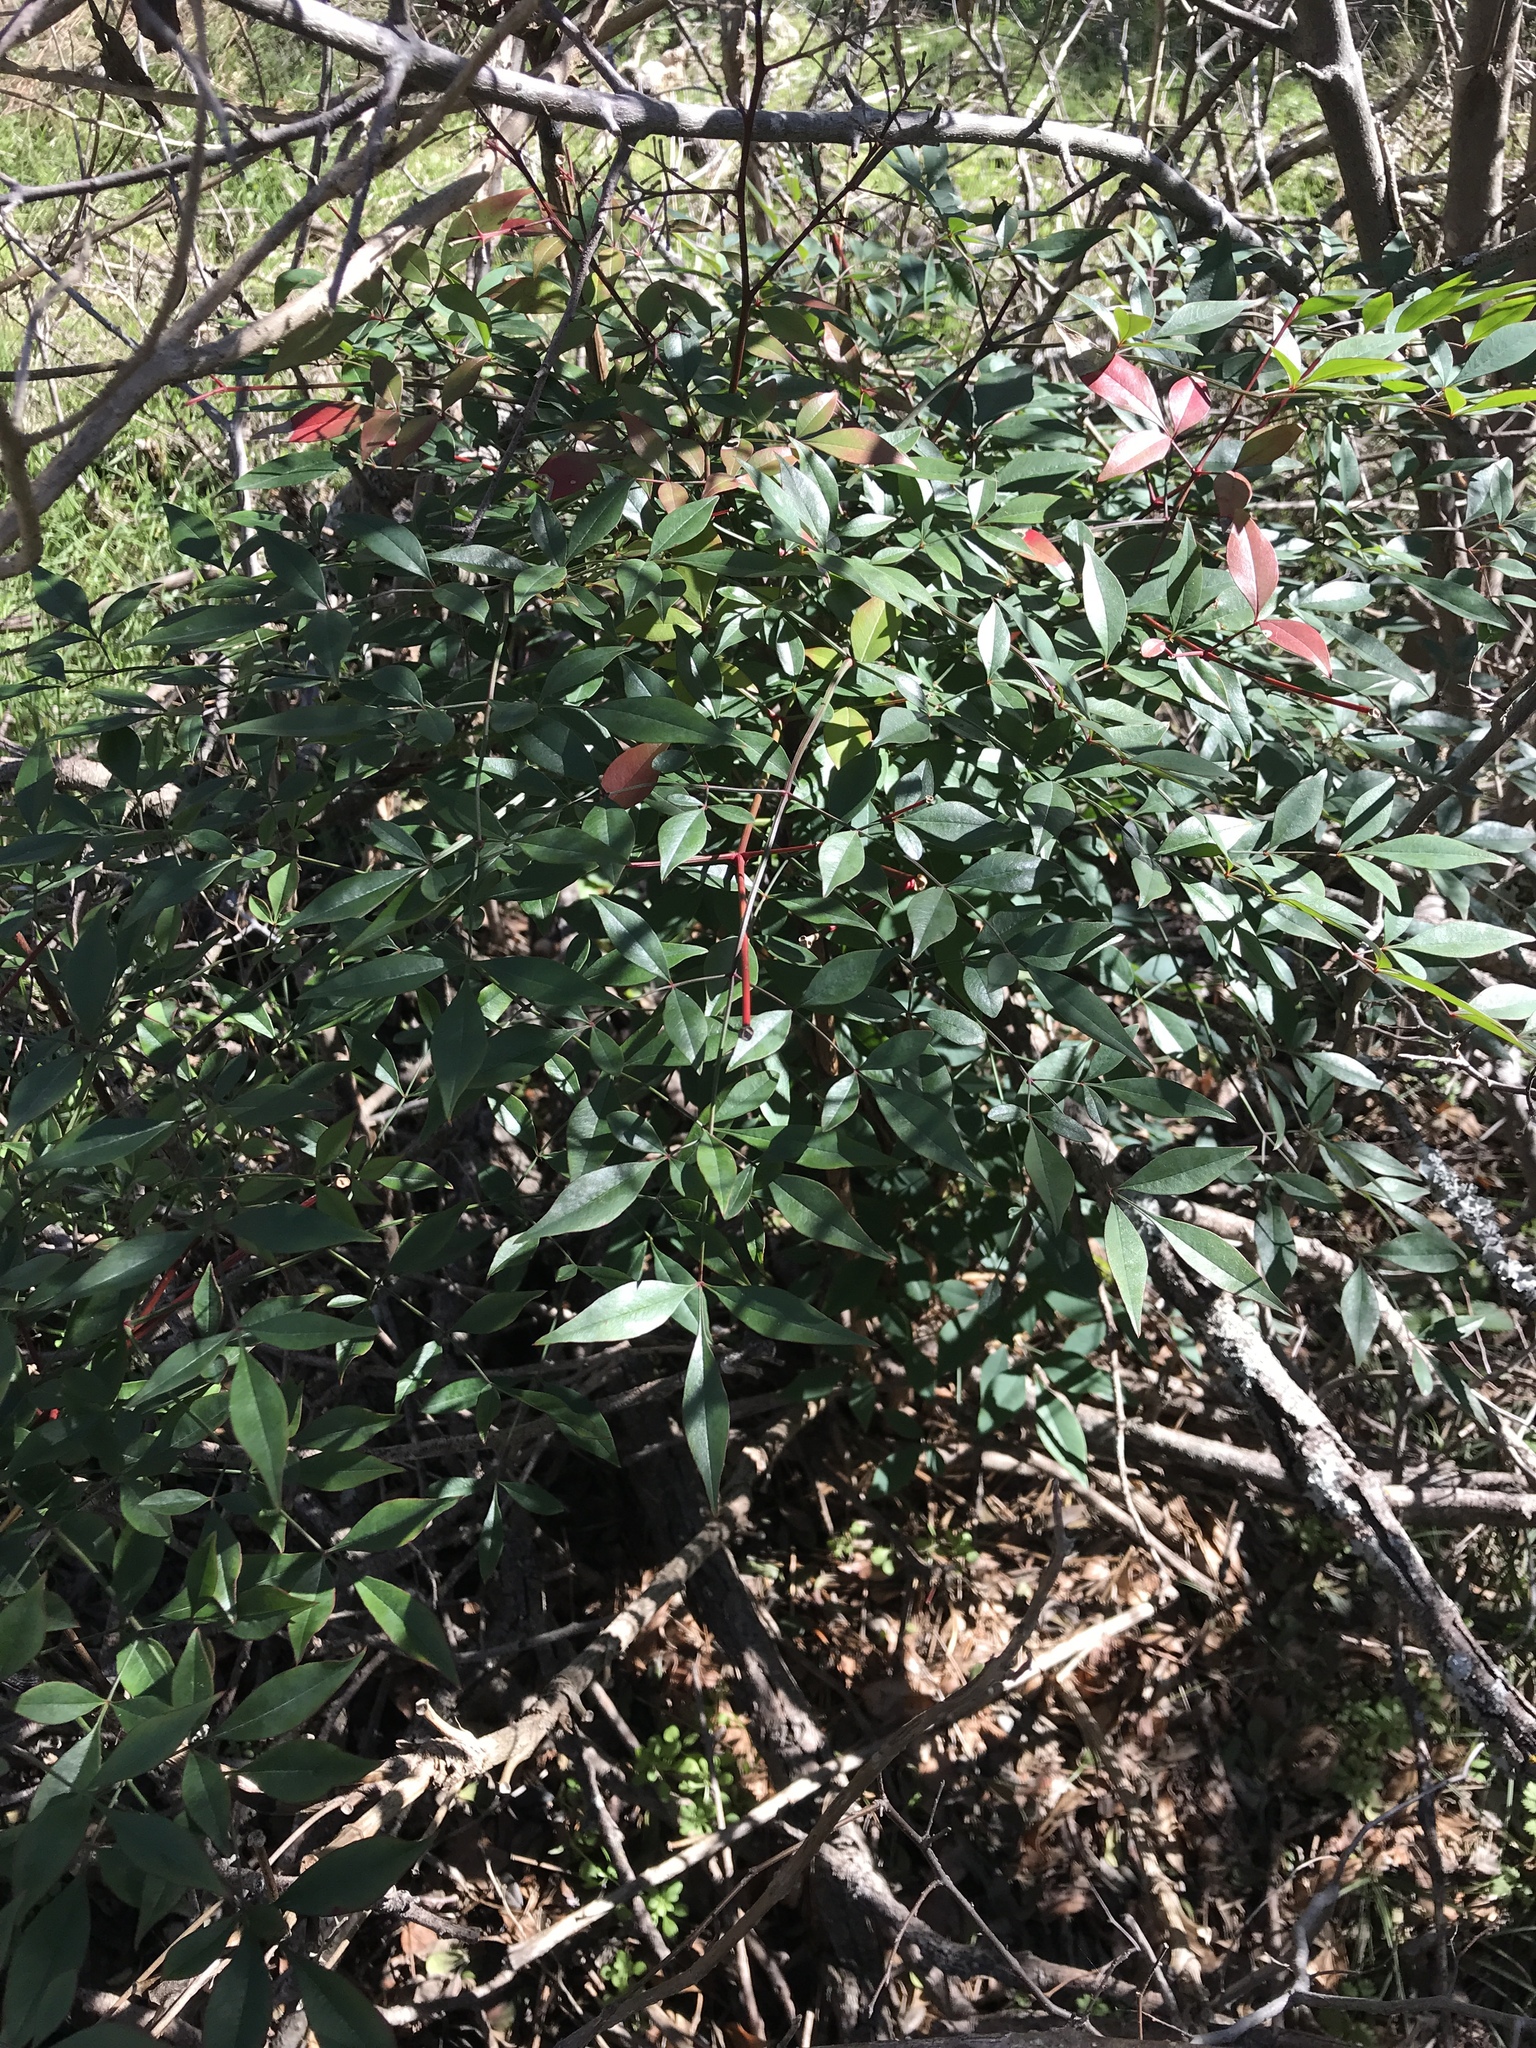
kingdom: Plantae
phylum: Tracheophyta
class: Magnoliopsida
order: Ranunculales
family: Berberidaceae
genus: Nandina
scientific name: Nandina domestica
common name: Sacred bamboo
